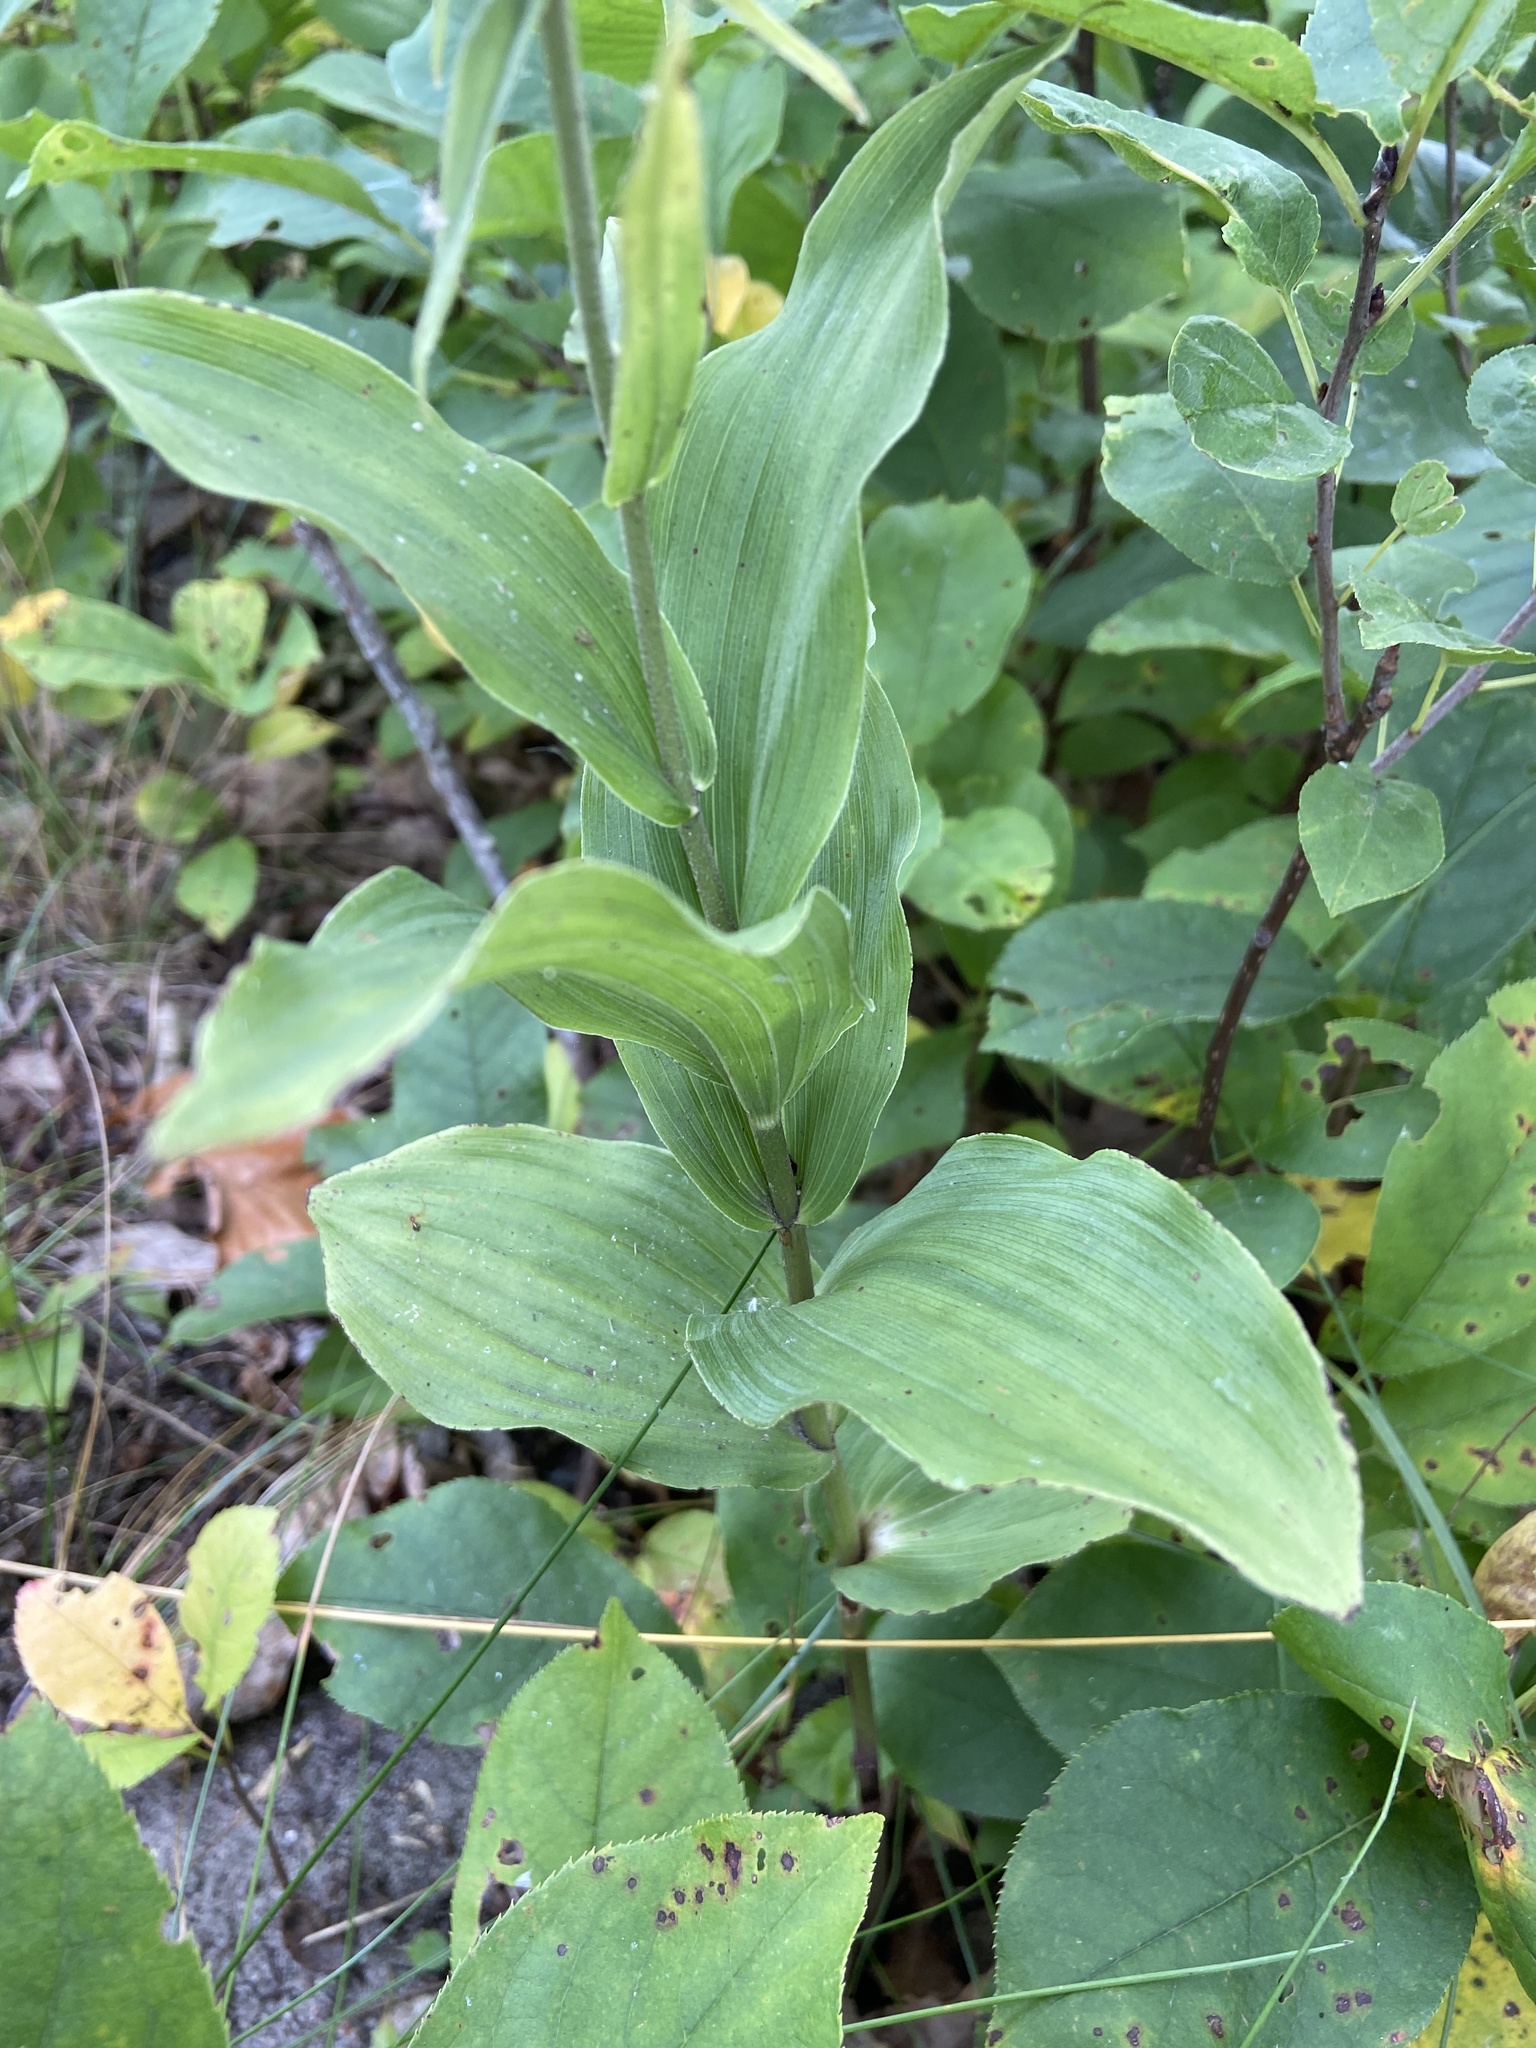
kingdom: Plantae
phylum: Tracheophyta
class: Liliopsida
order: Asparagales
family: Orchidaceae
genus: Epipactis
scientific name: Epipactis helleborine
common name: Broad-leaved helleborine
